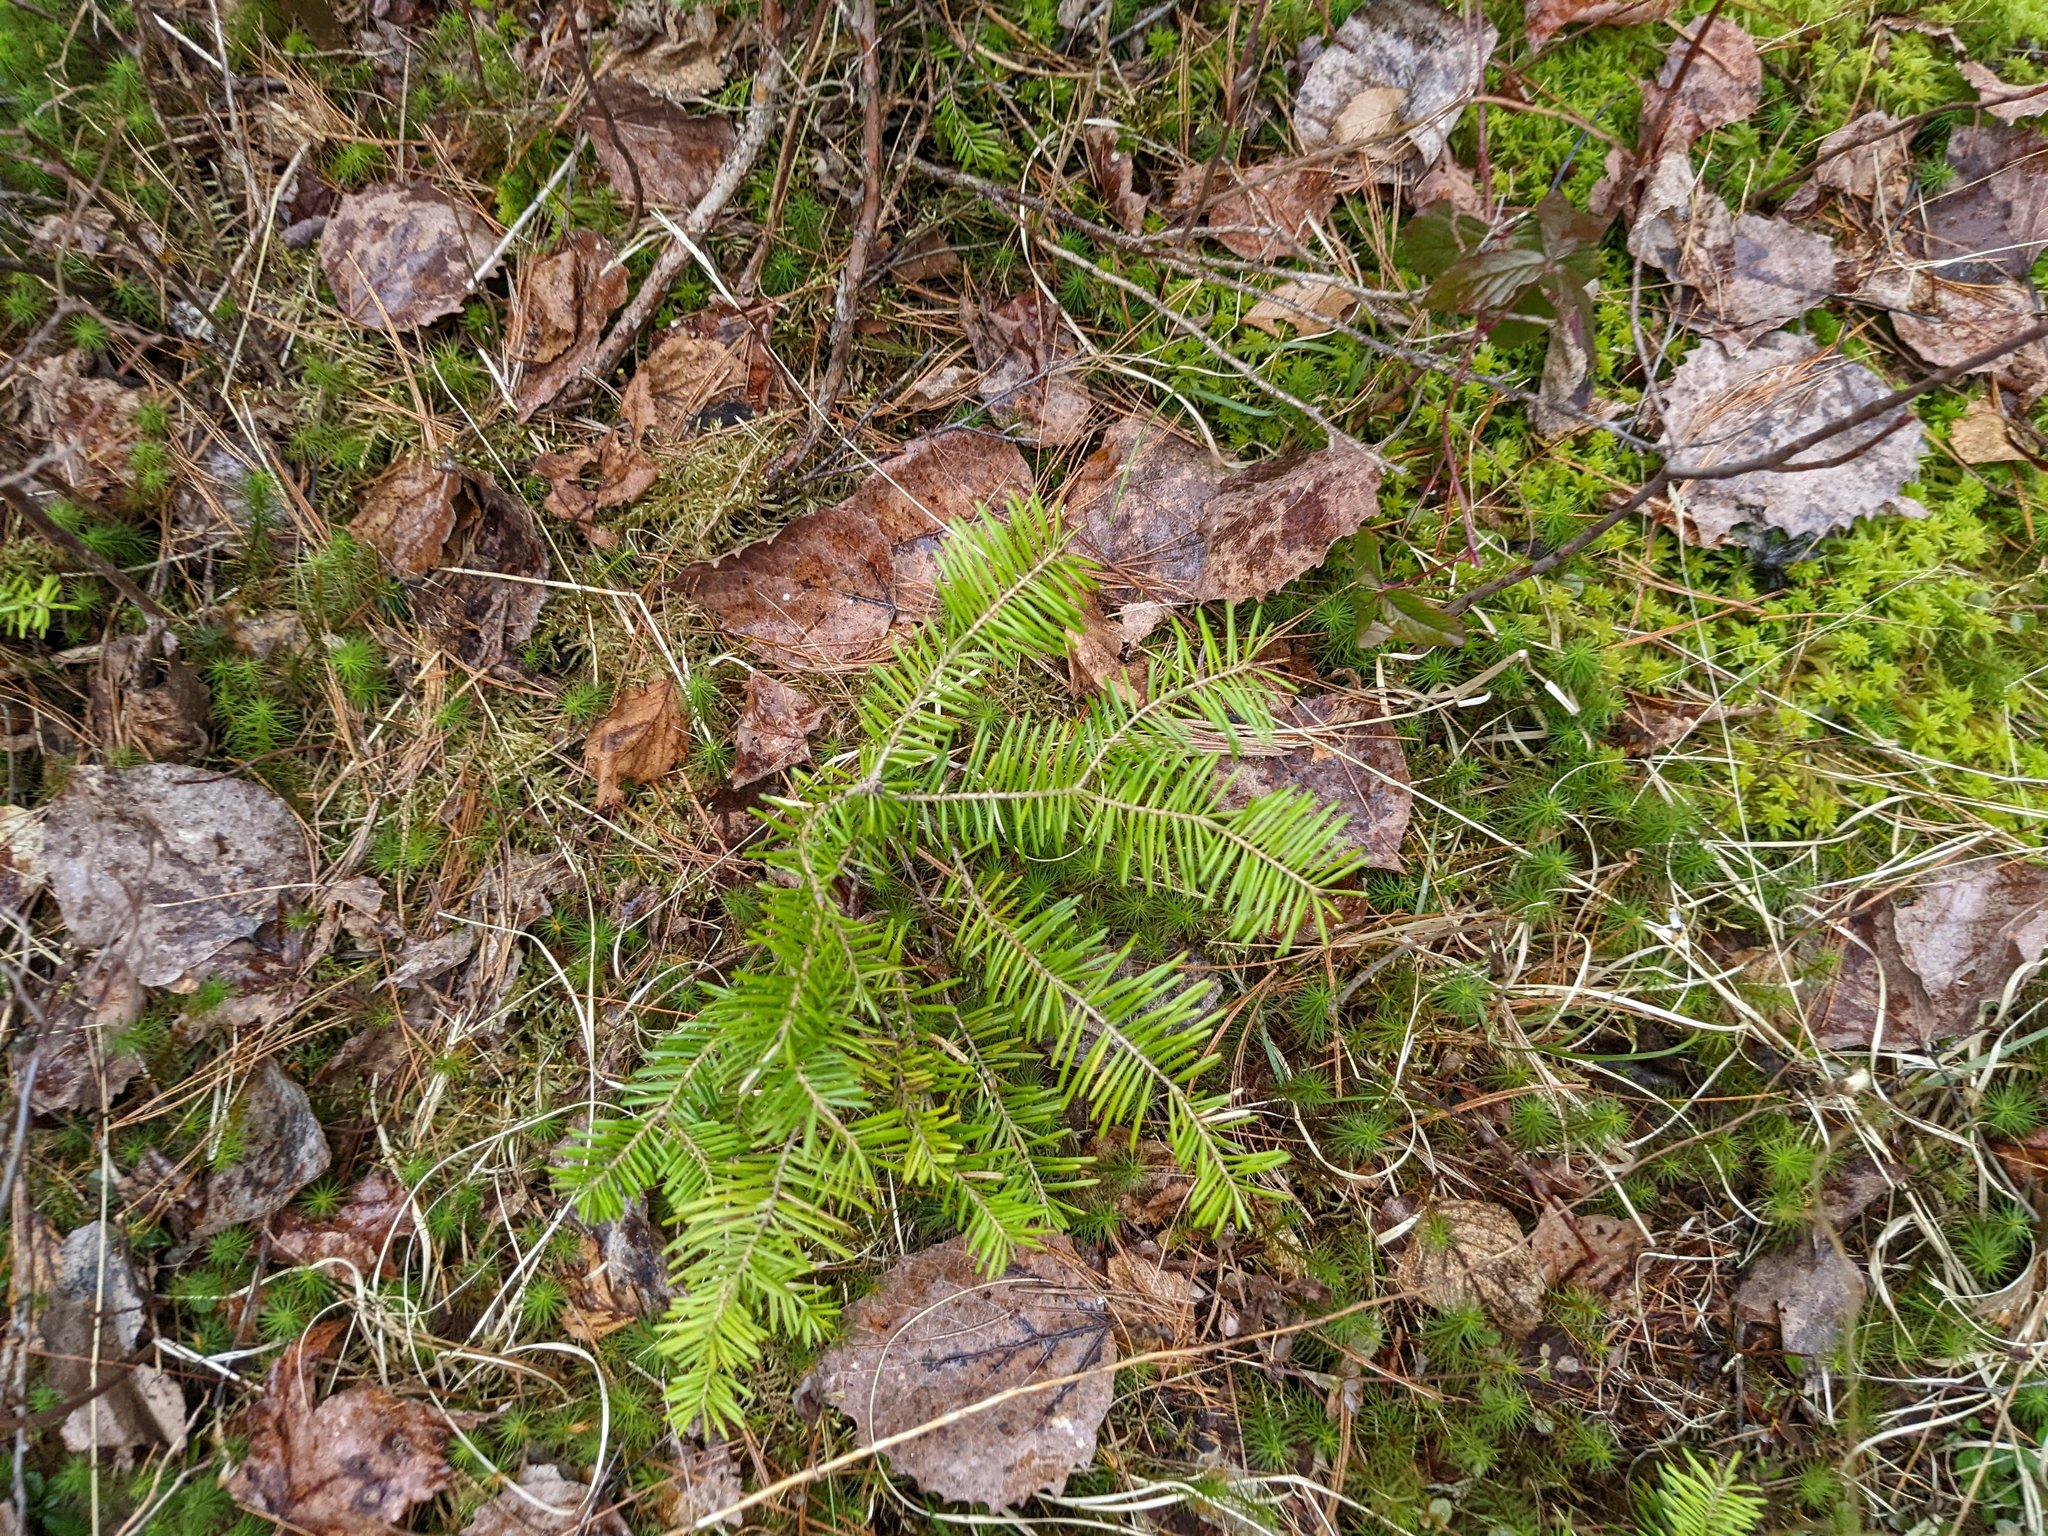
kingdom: Plantae
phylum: Tracheophyta
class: Pinopsida
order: Pinales
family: Pinaceae
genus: Abies
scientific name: Abies balsamea
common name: Balsam fir
